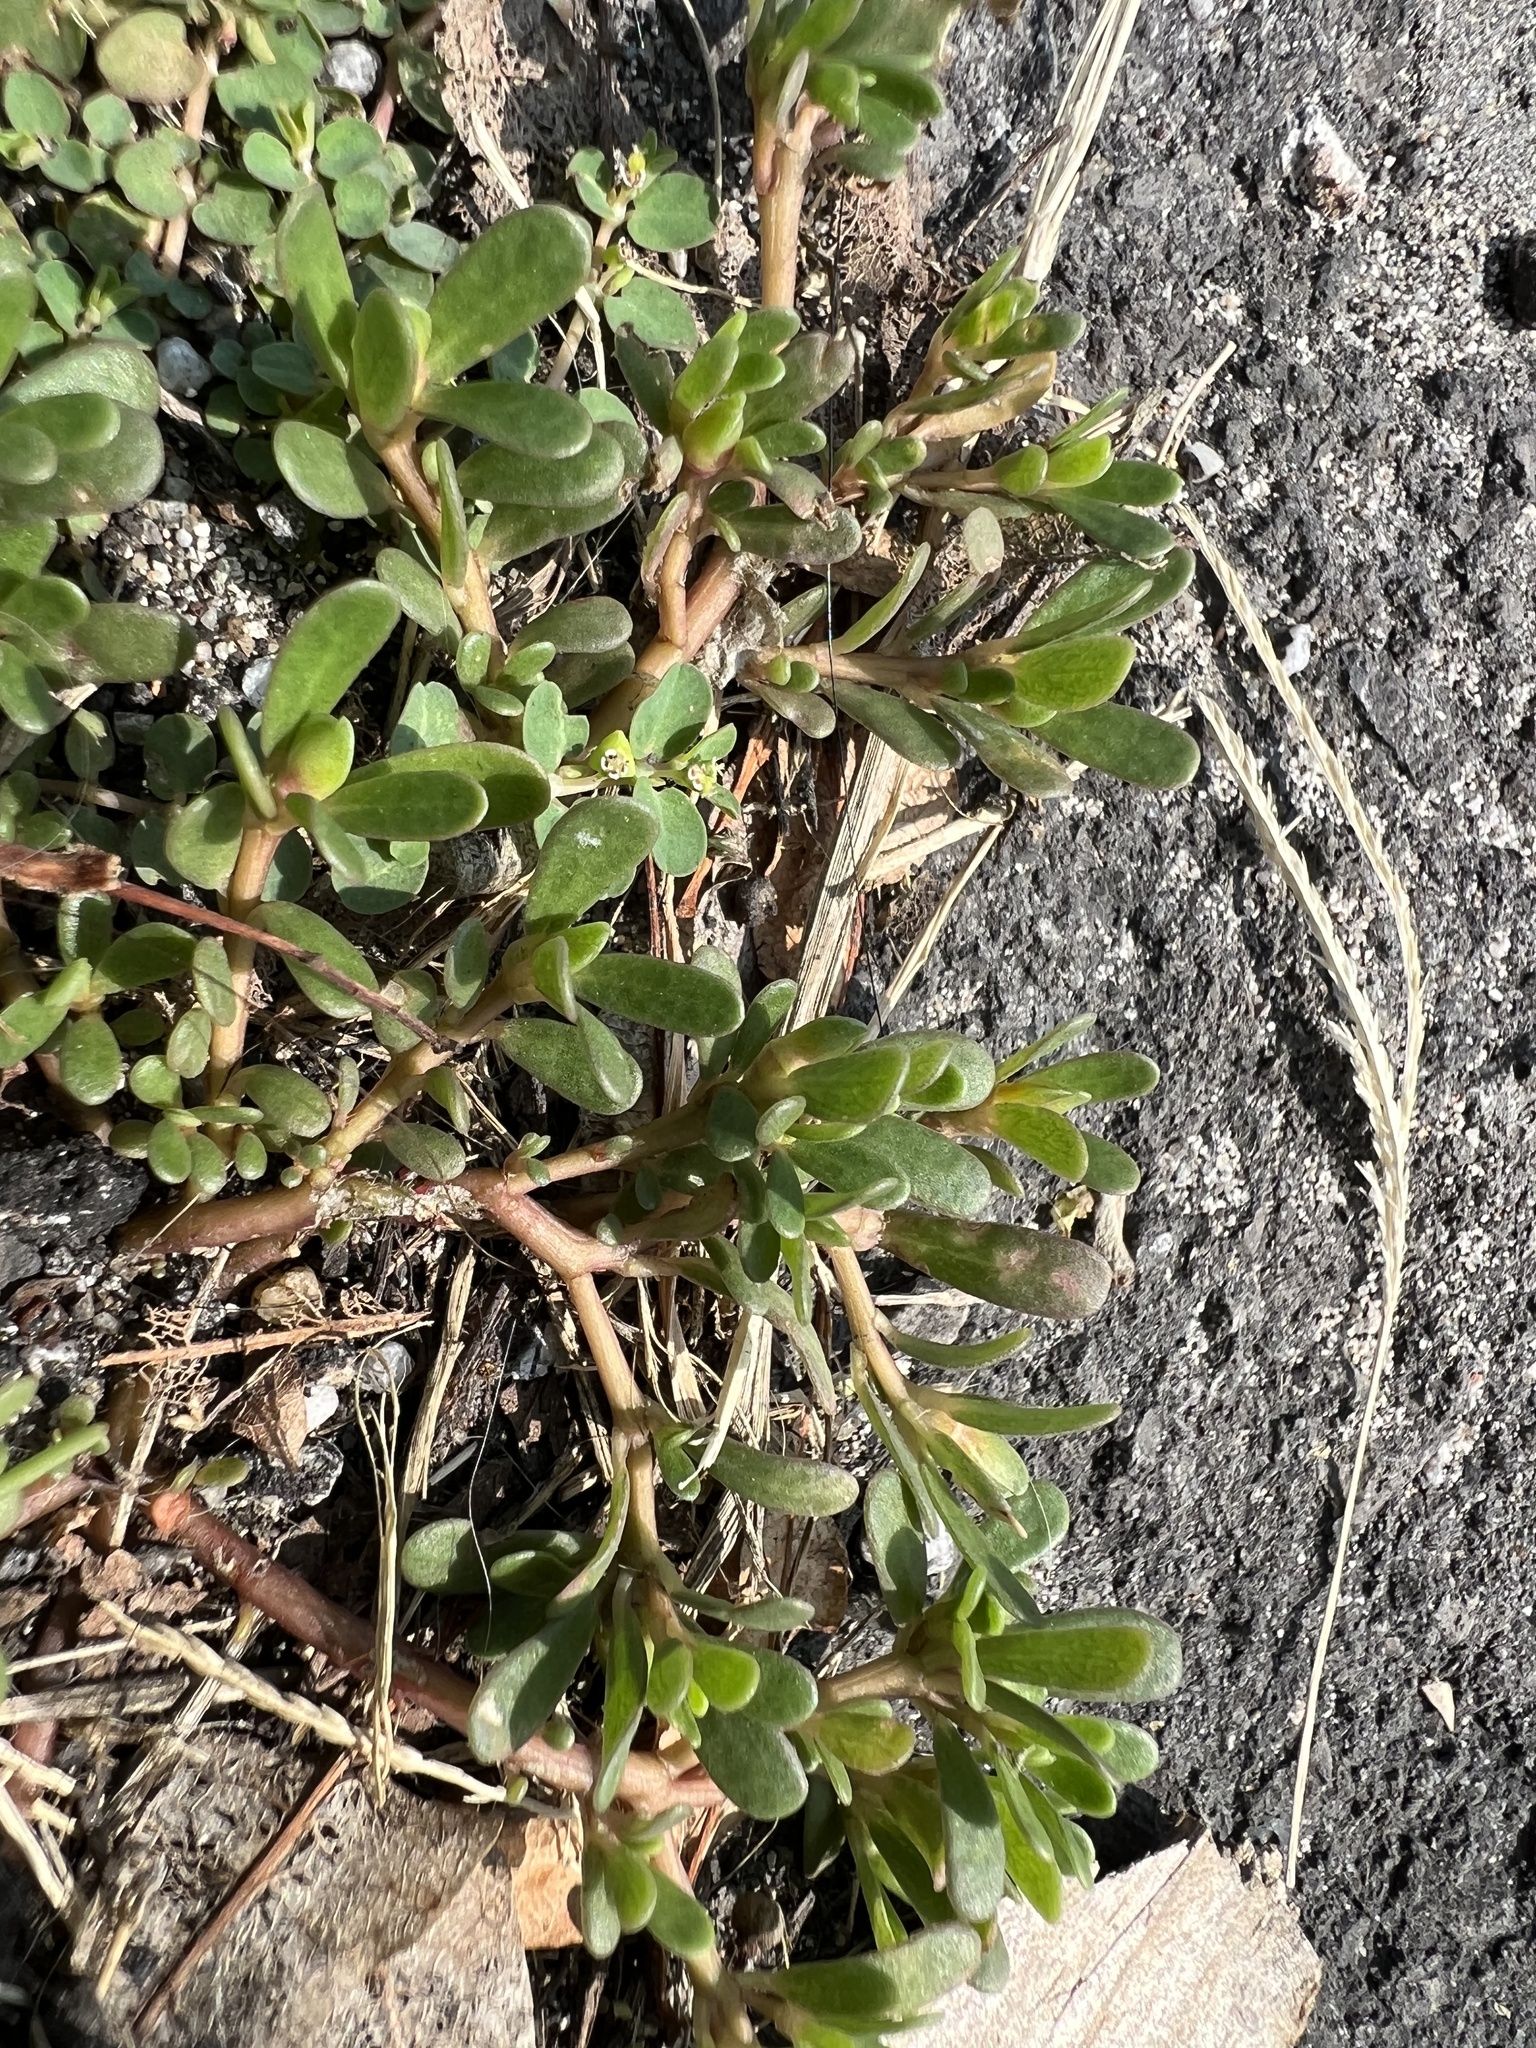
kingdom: Plantae
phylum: Tracheophyta
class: Magnoliopsida
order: Caryophyllales
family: Portulacaceae
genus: Portulaca
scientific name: Portulaca oleracea
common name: Common purslane
